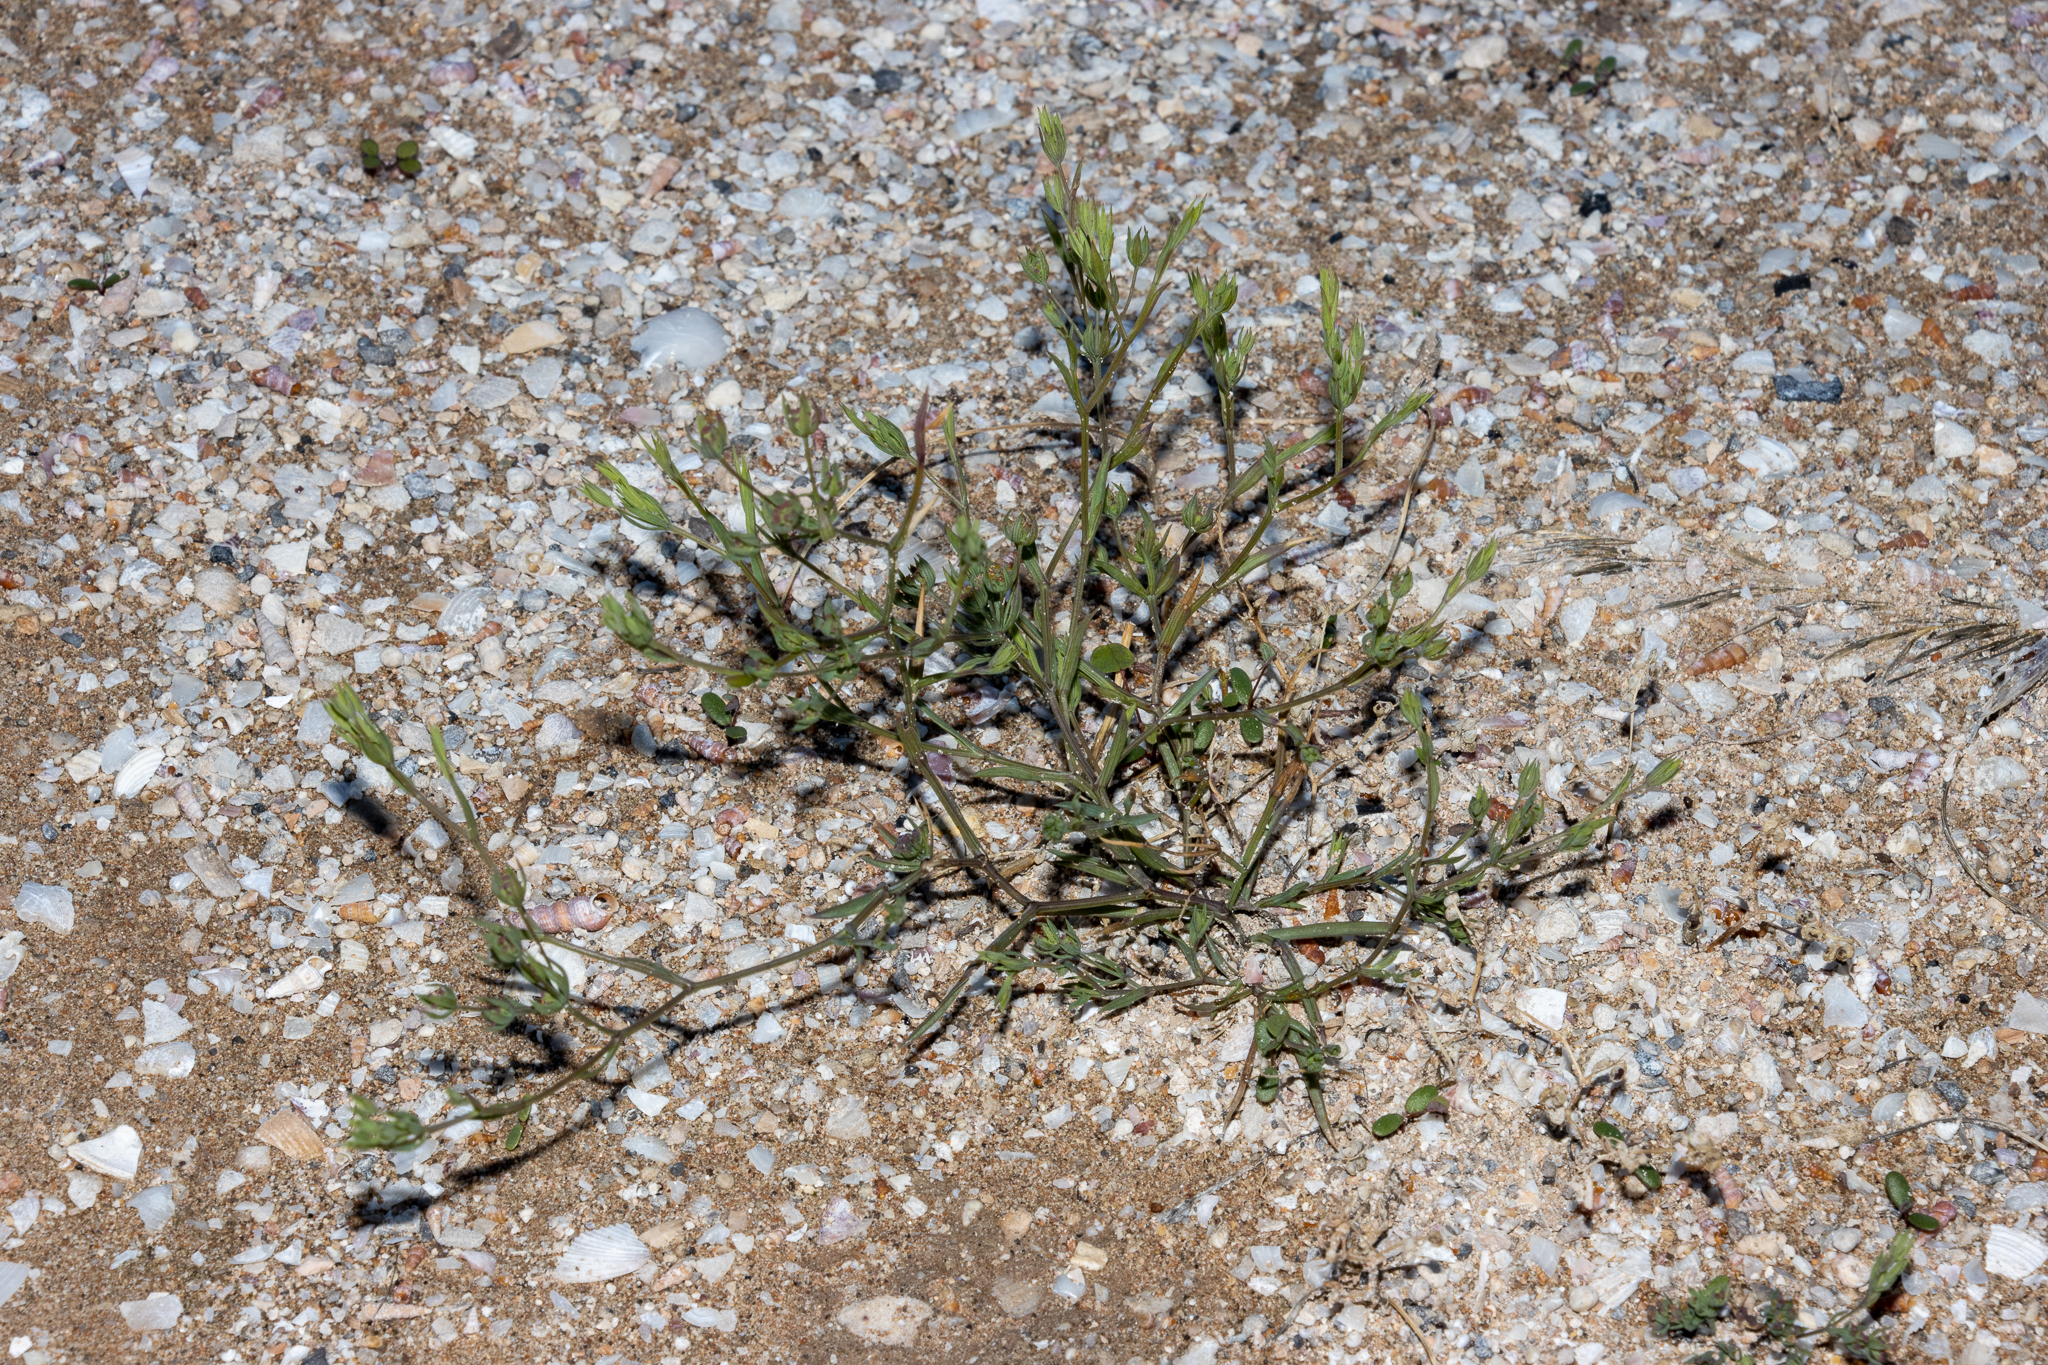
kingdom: Plantae
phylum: Tracheophyta
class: Magnoliopsida
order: Apiales
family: Apiaceae
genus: Bupleurum
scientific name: Bupleurum semicompositum
